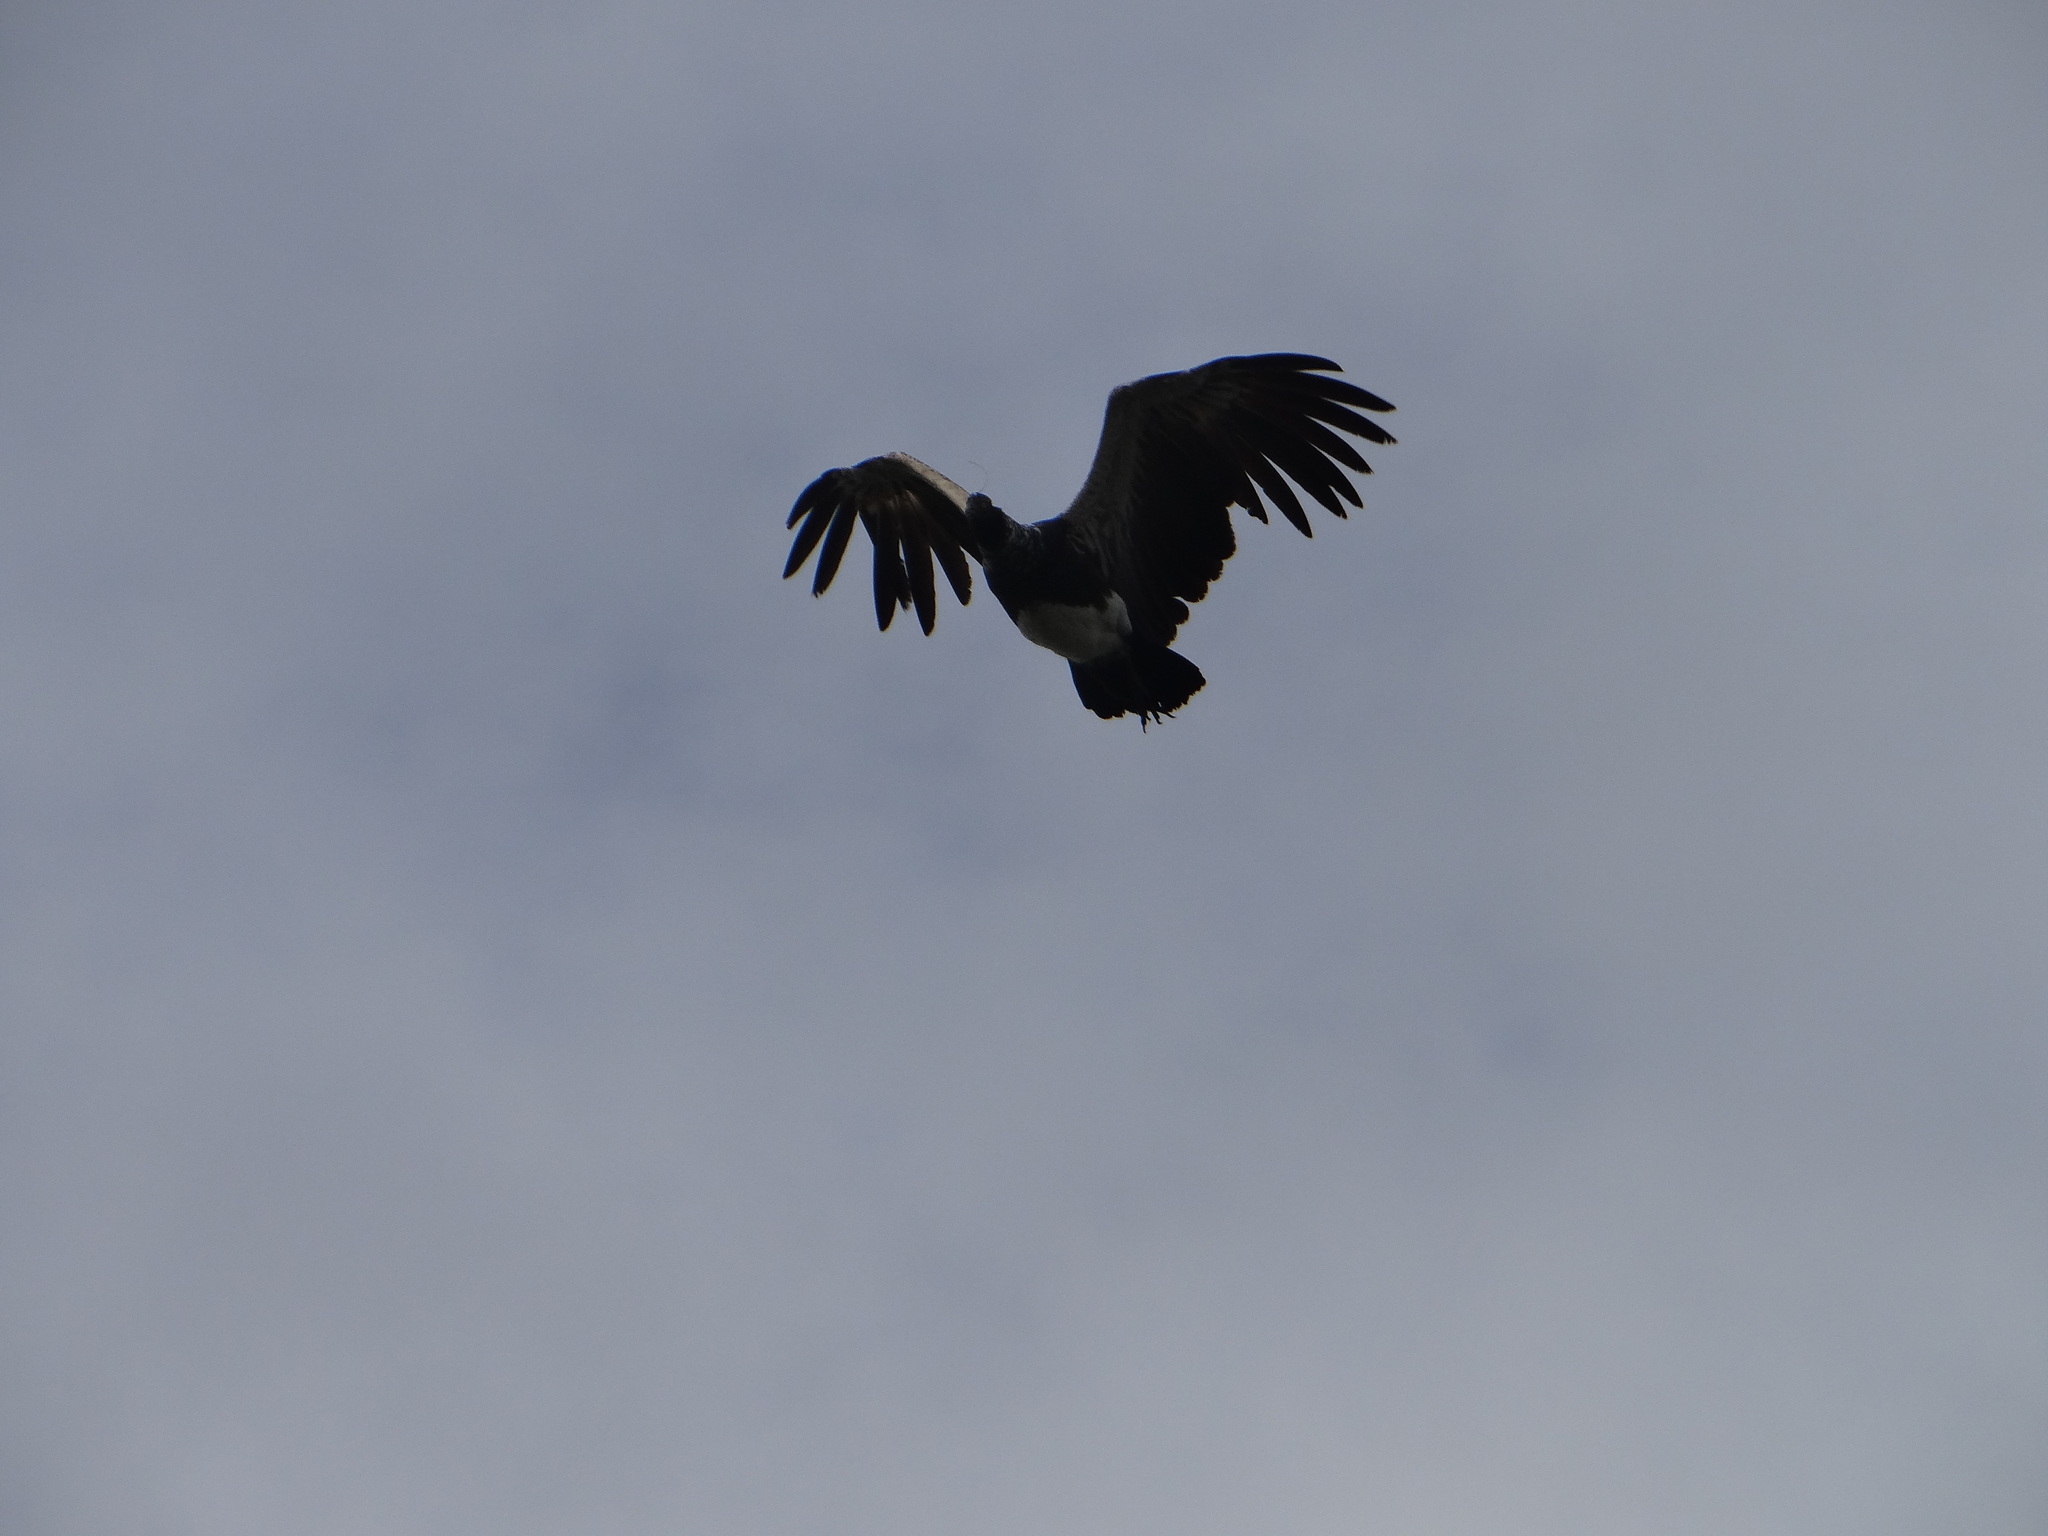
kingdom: Animalia
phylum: Chordata
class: Aves
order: Anseriformes
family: Anhimidae
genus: Anhima
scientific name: Anhima cornuta
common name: Horned screamer
